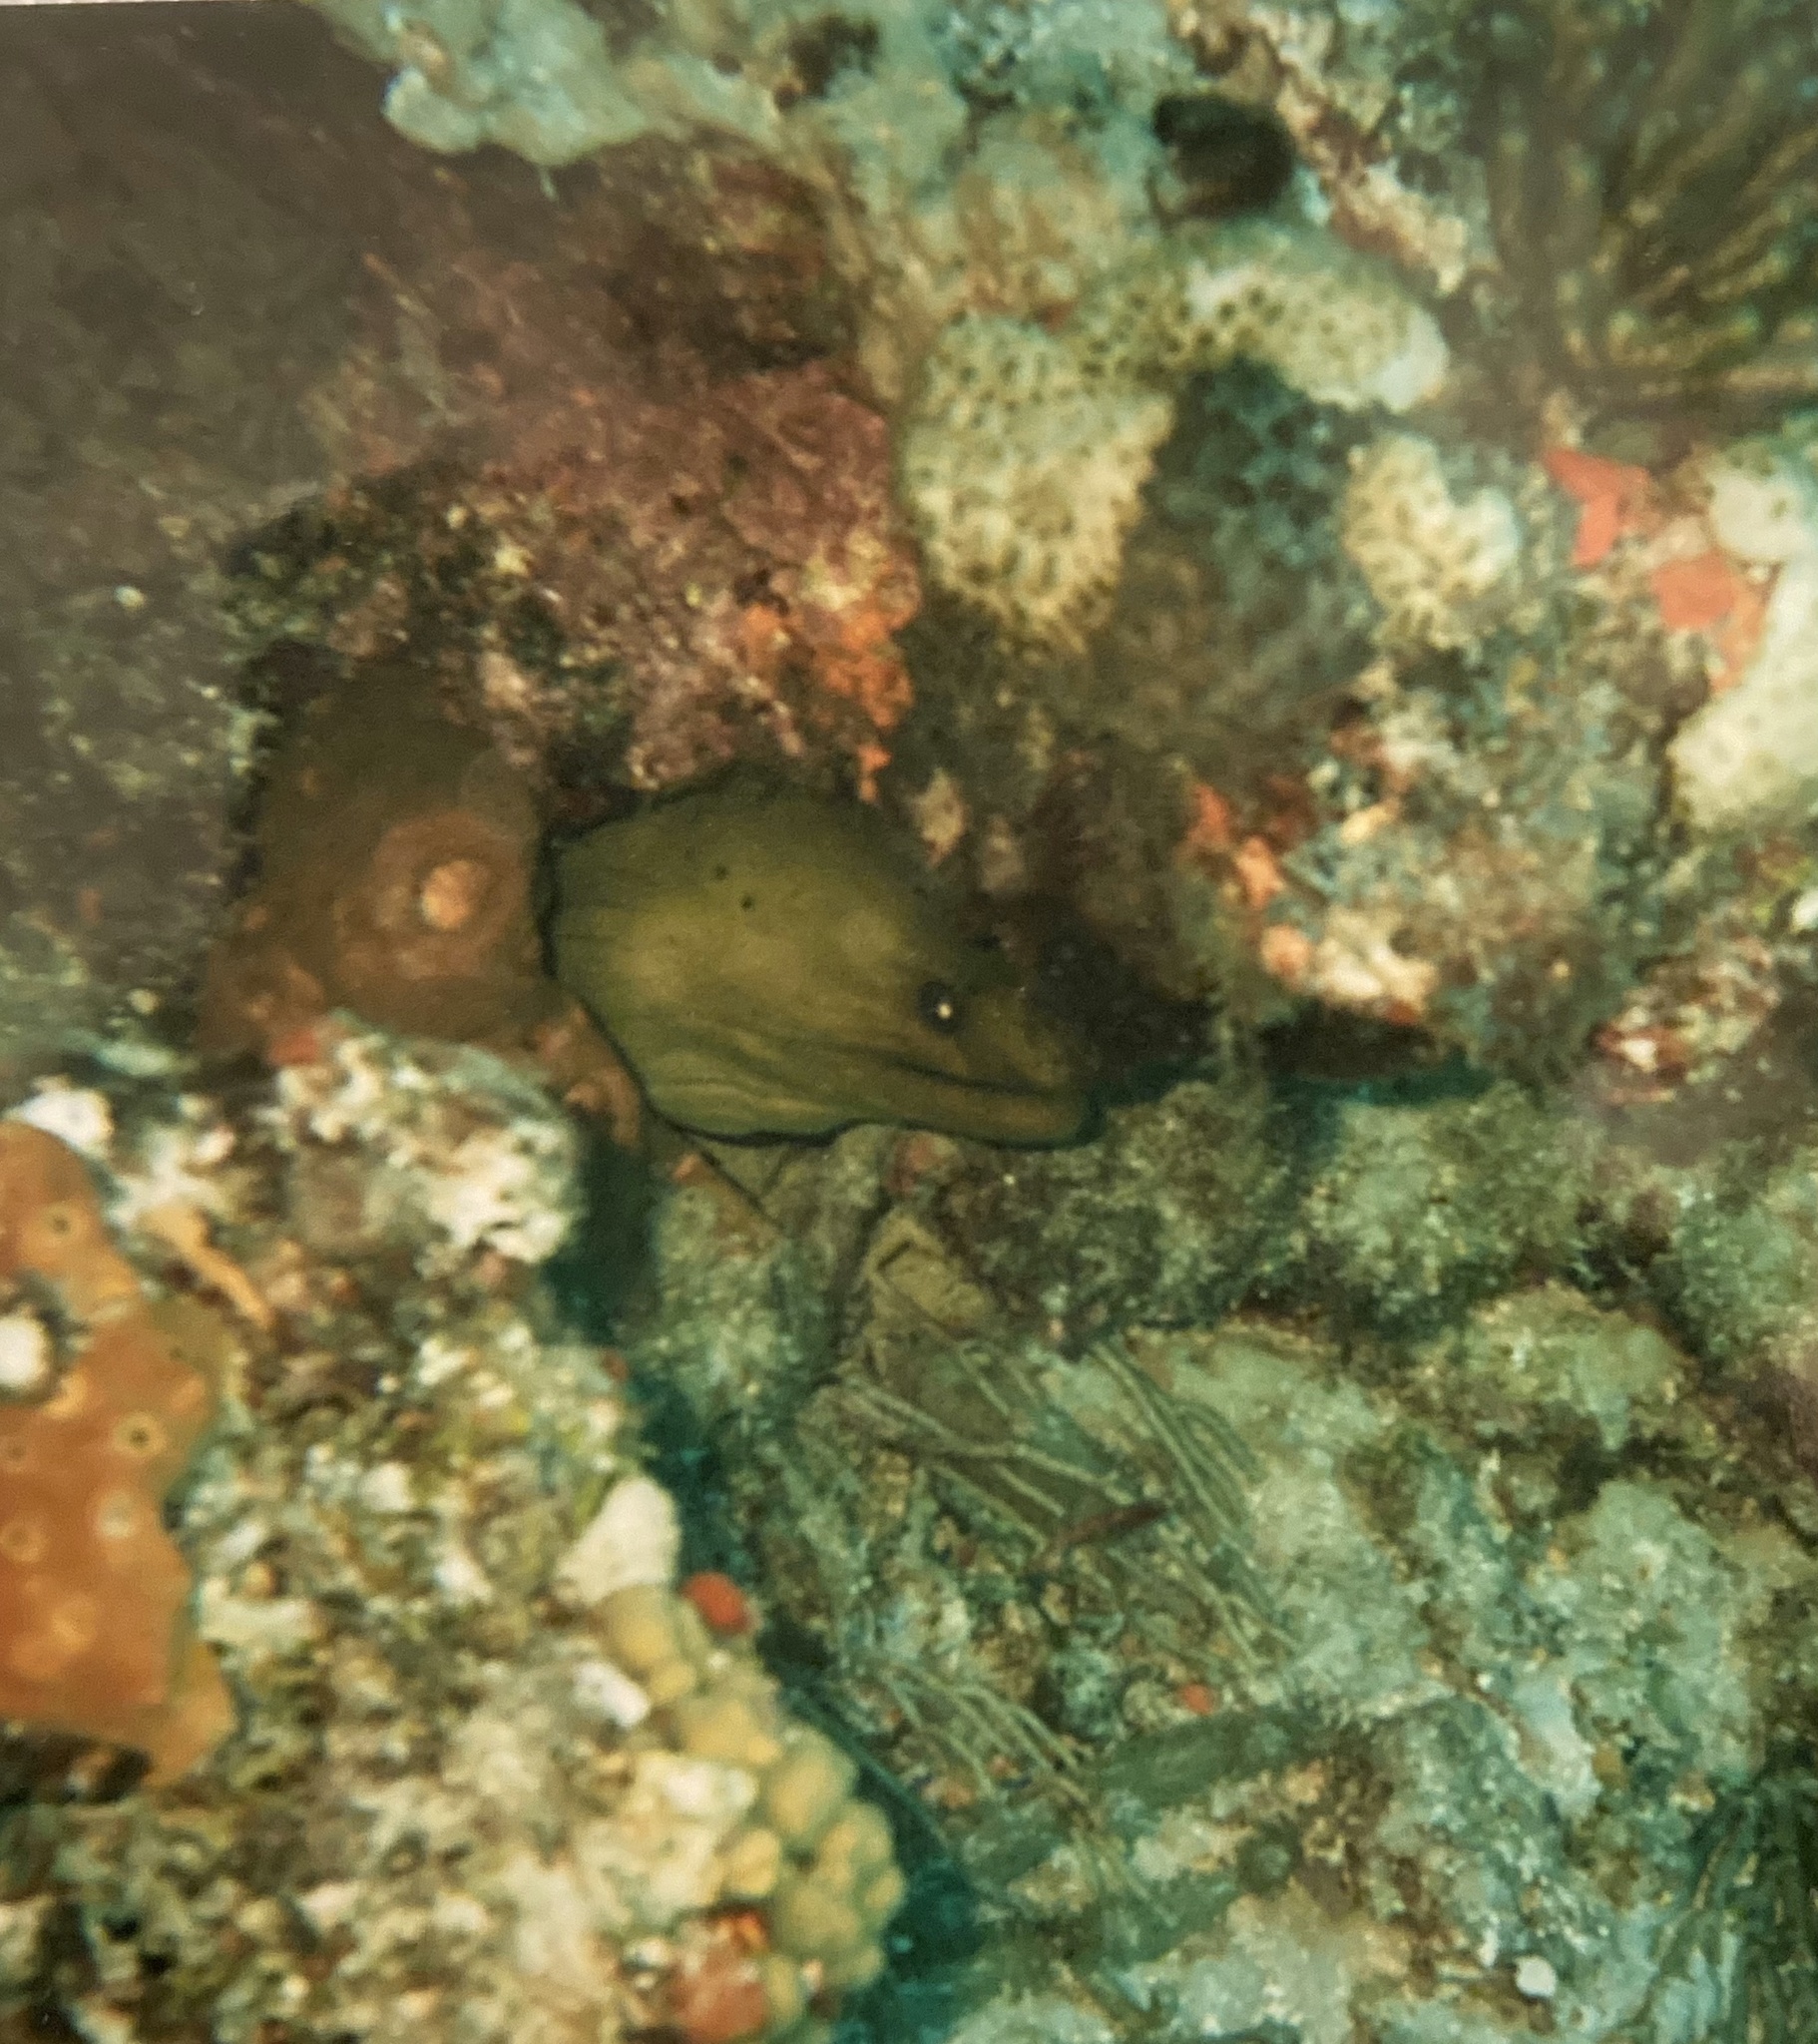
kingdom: Animalia
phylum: Chordata
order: Anguilliformes
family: Muraenidae
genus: Gymnothorax
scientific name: Gymnothorax funebris
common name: Green moray
